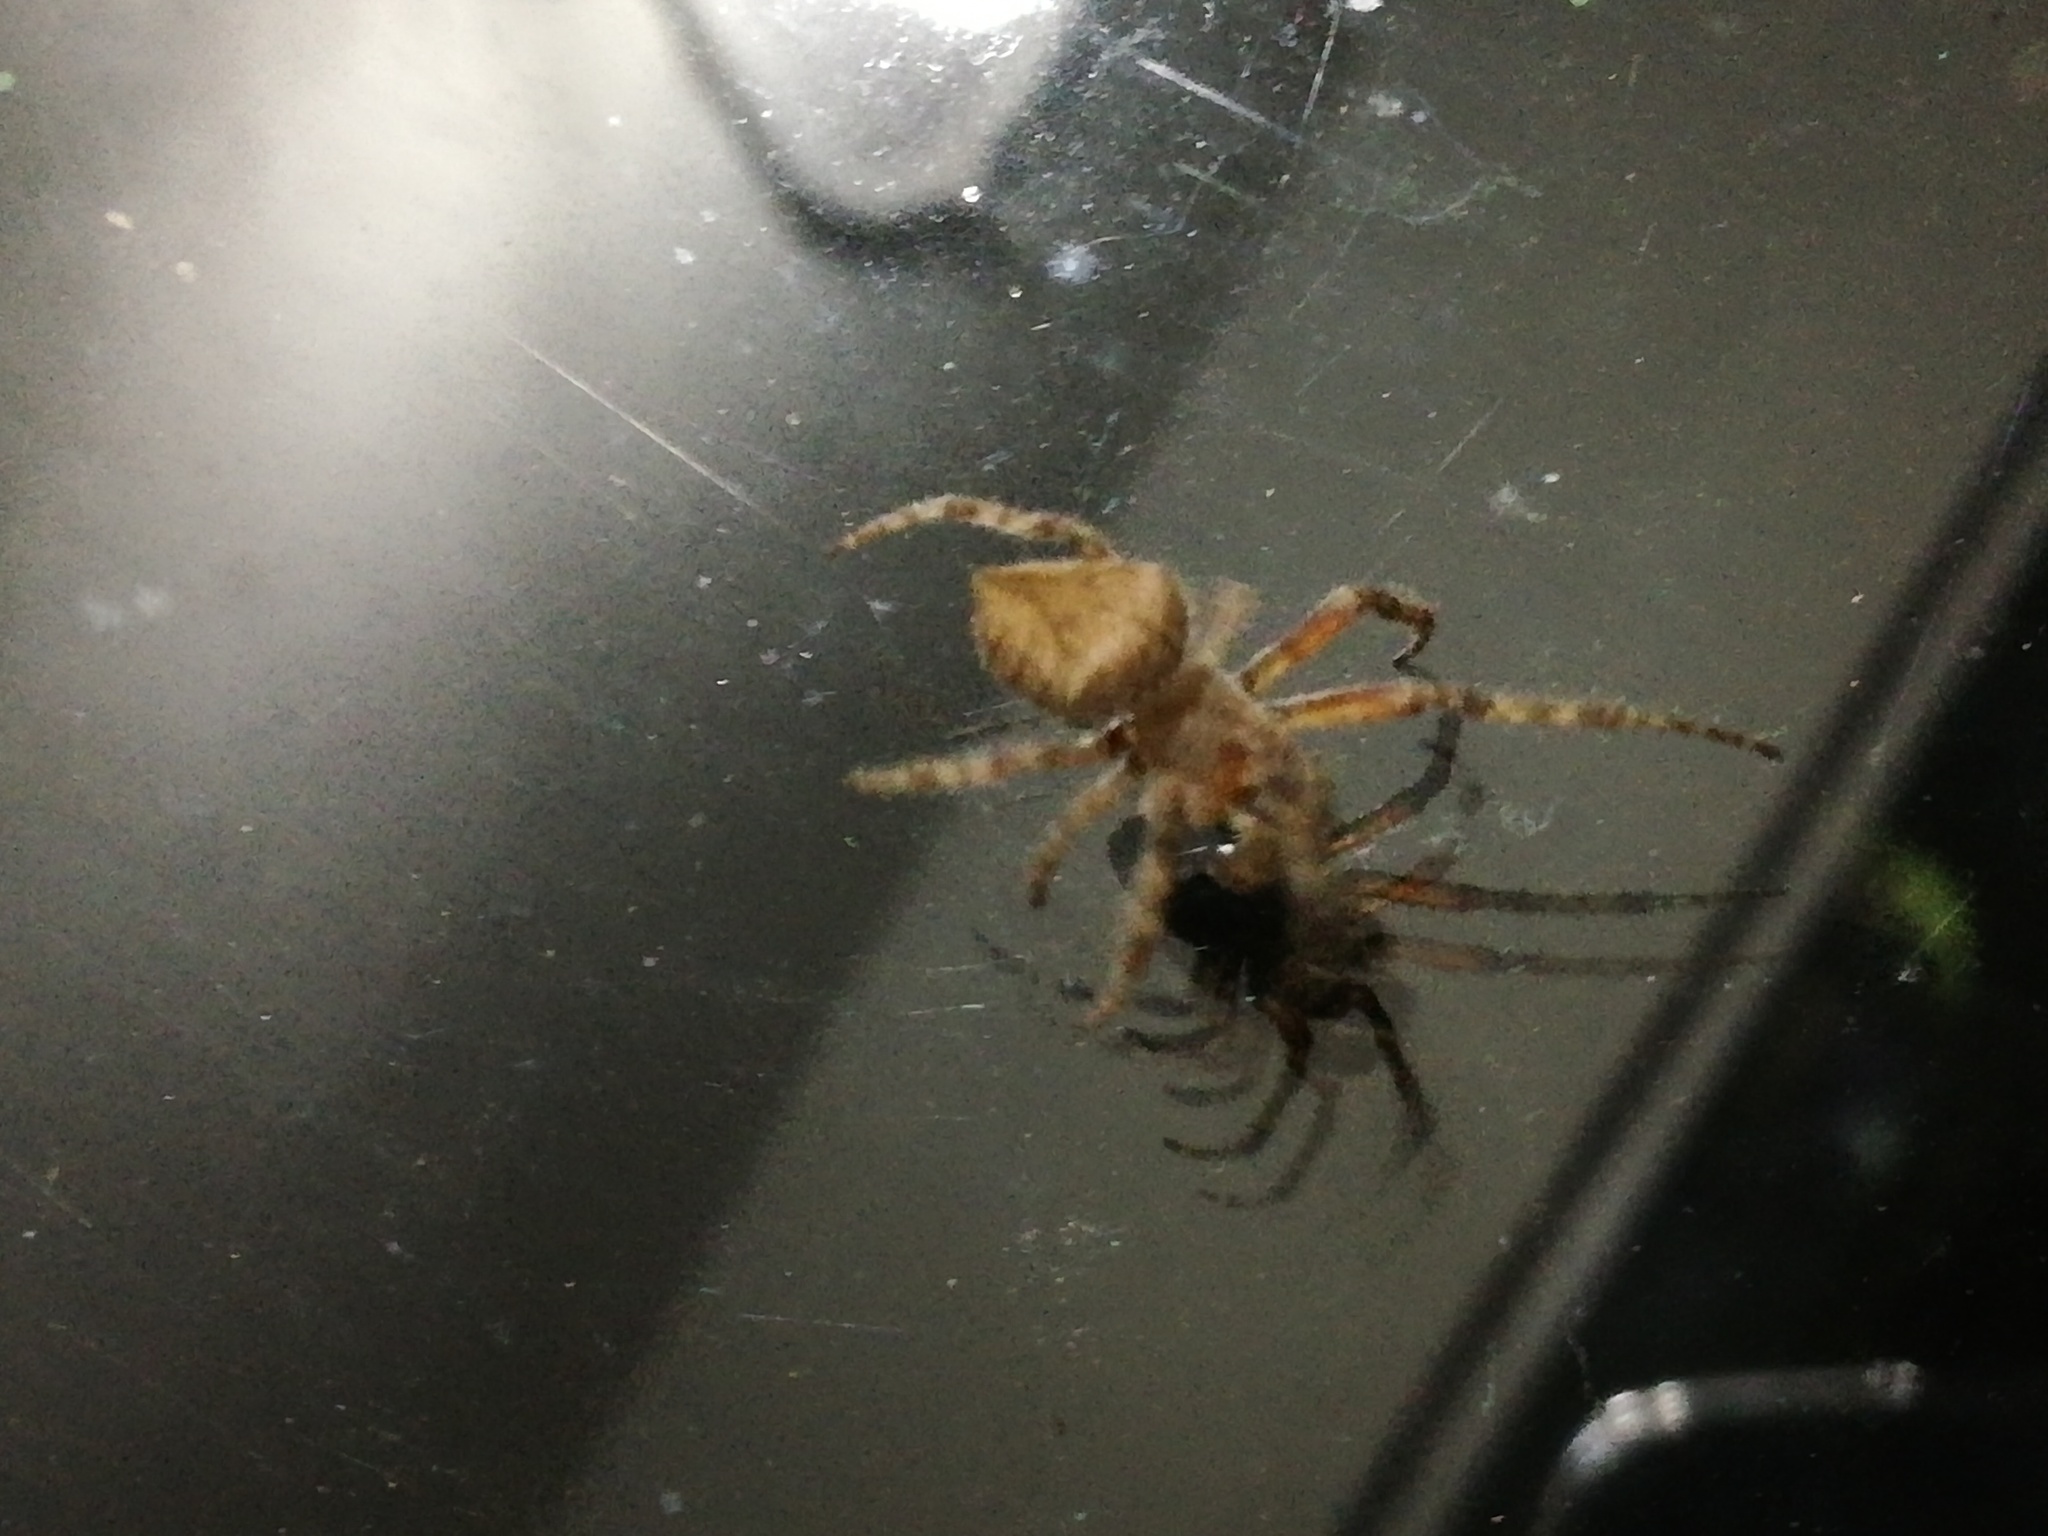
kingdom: Animalia
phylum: Arthropoda
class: Arachnida
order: Araneae
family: Araneidae
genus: Eriophora
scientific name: Eriophora edax
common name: Orb weavers
